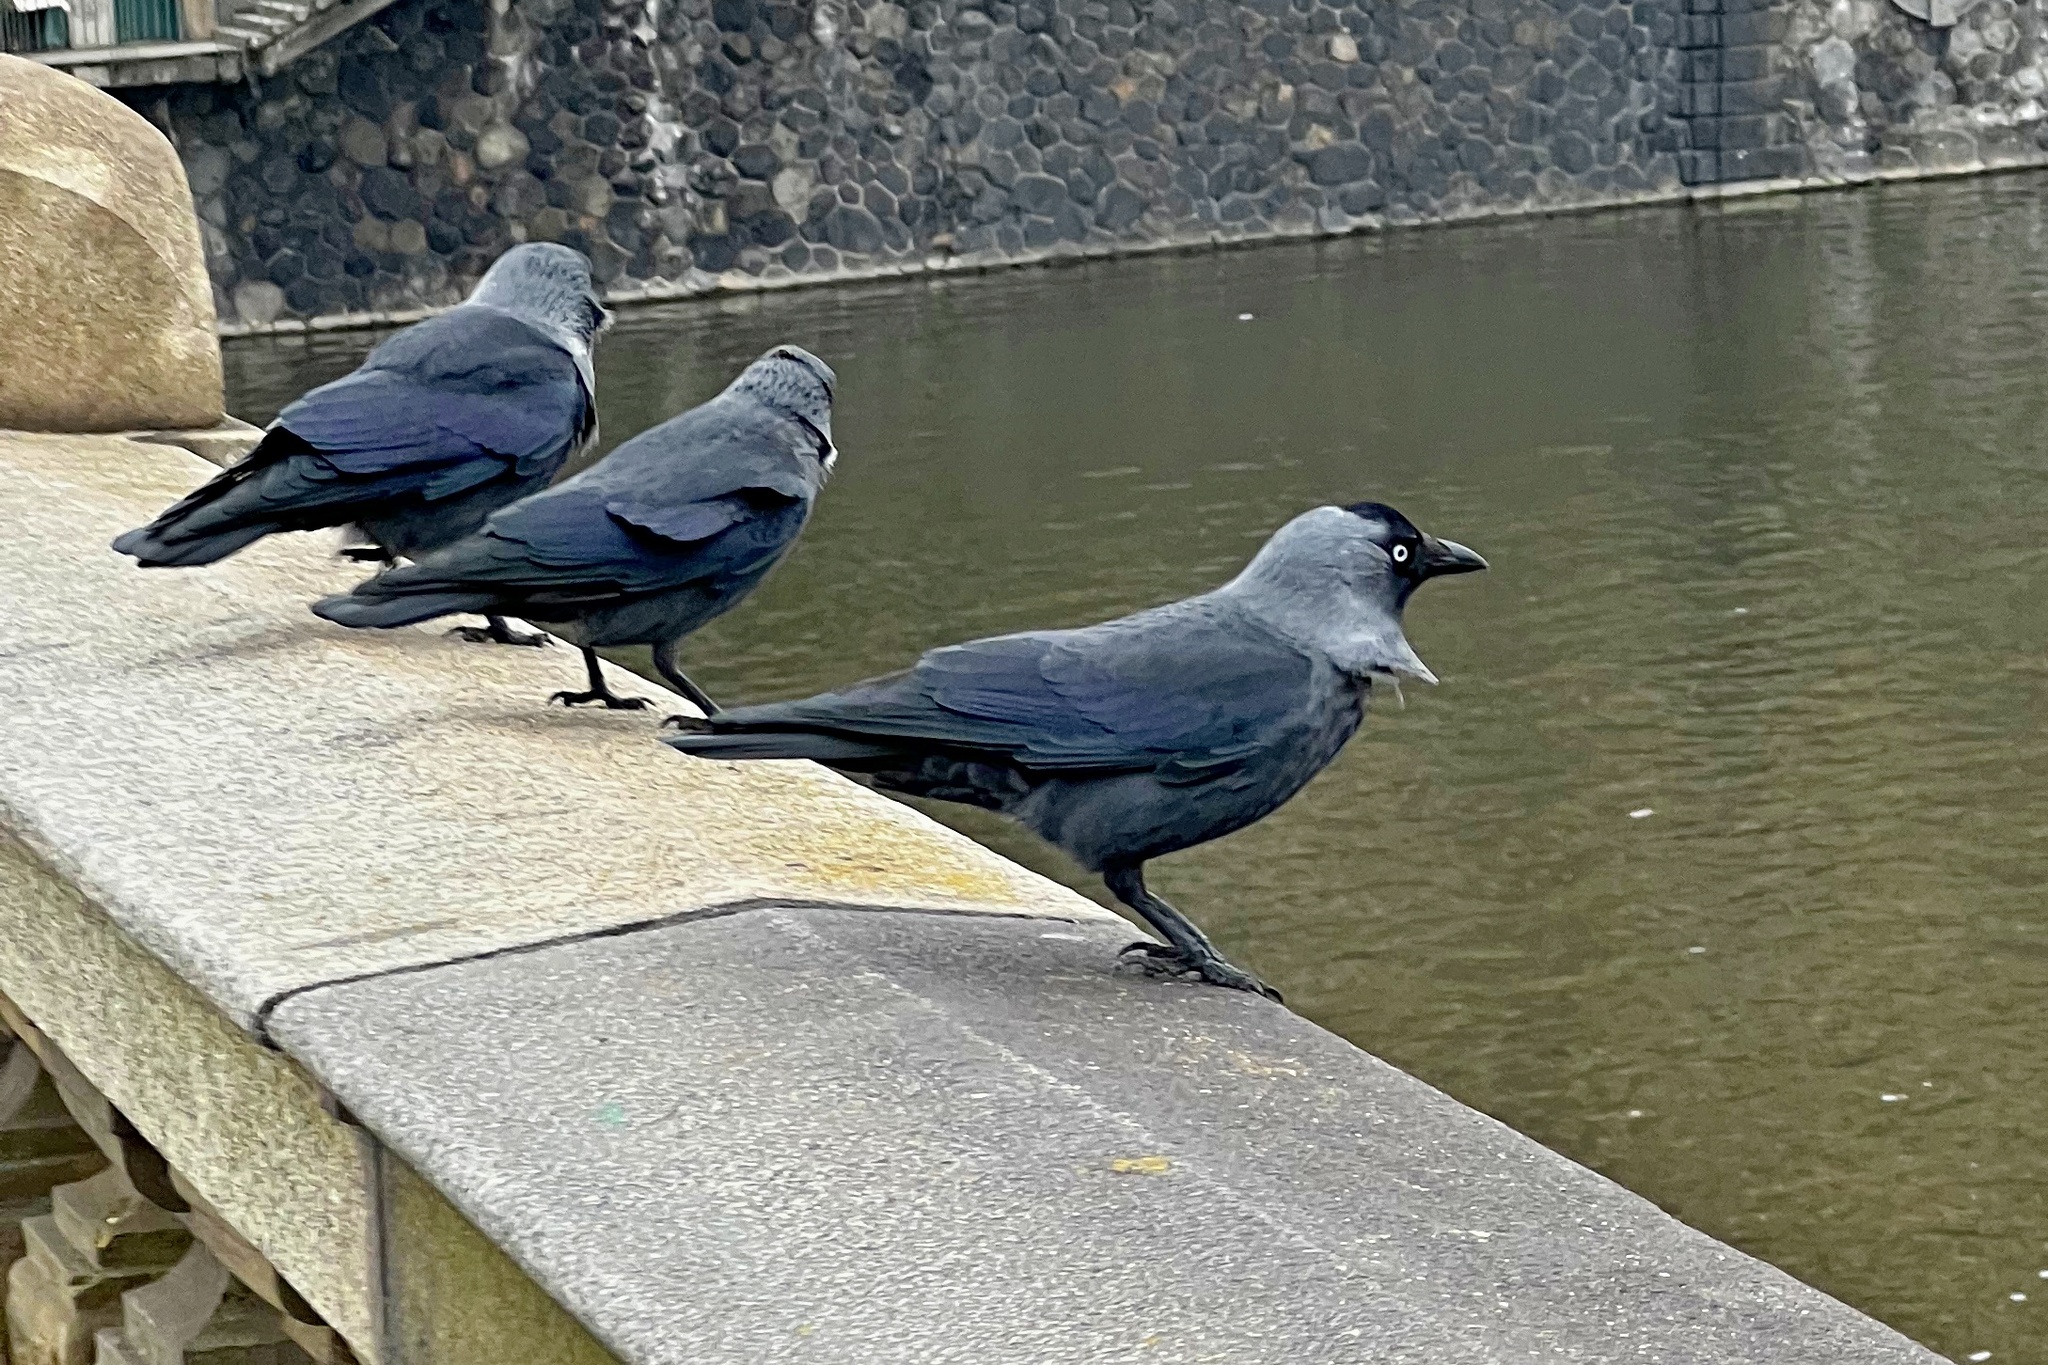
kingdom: Animalia
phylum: Chordata
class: Aves
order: Passeriformes
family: Corvidae
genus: Coloeus
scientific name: Coloeus monedula
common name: Western jackdaw
